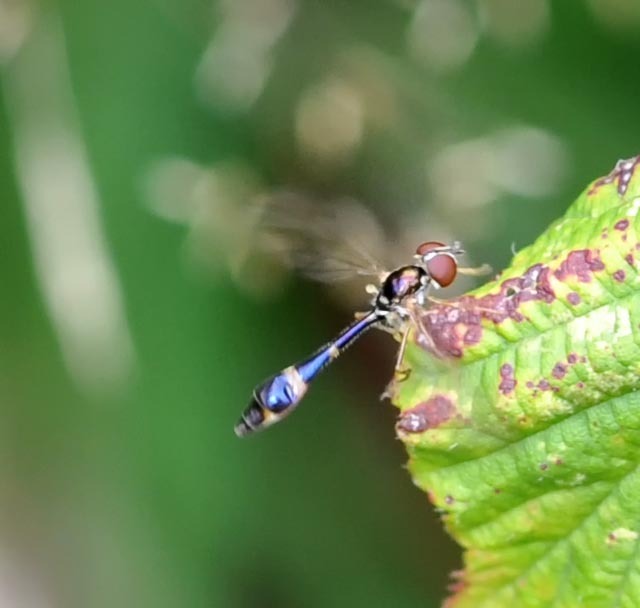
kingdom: Animalia
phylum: Arthropoda
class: Insecta
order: Diptera
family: Syrphidae
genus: Baccha
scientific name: Baccha elongata
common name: Common dainty
